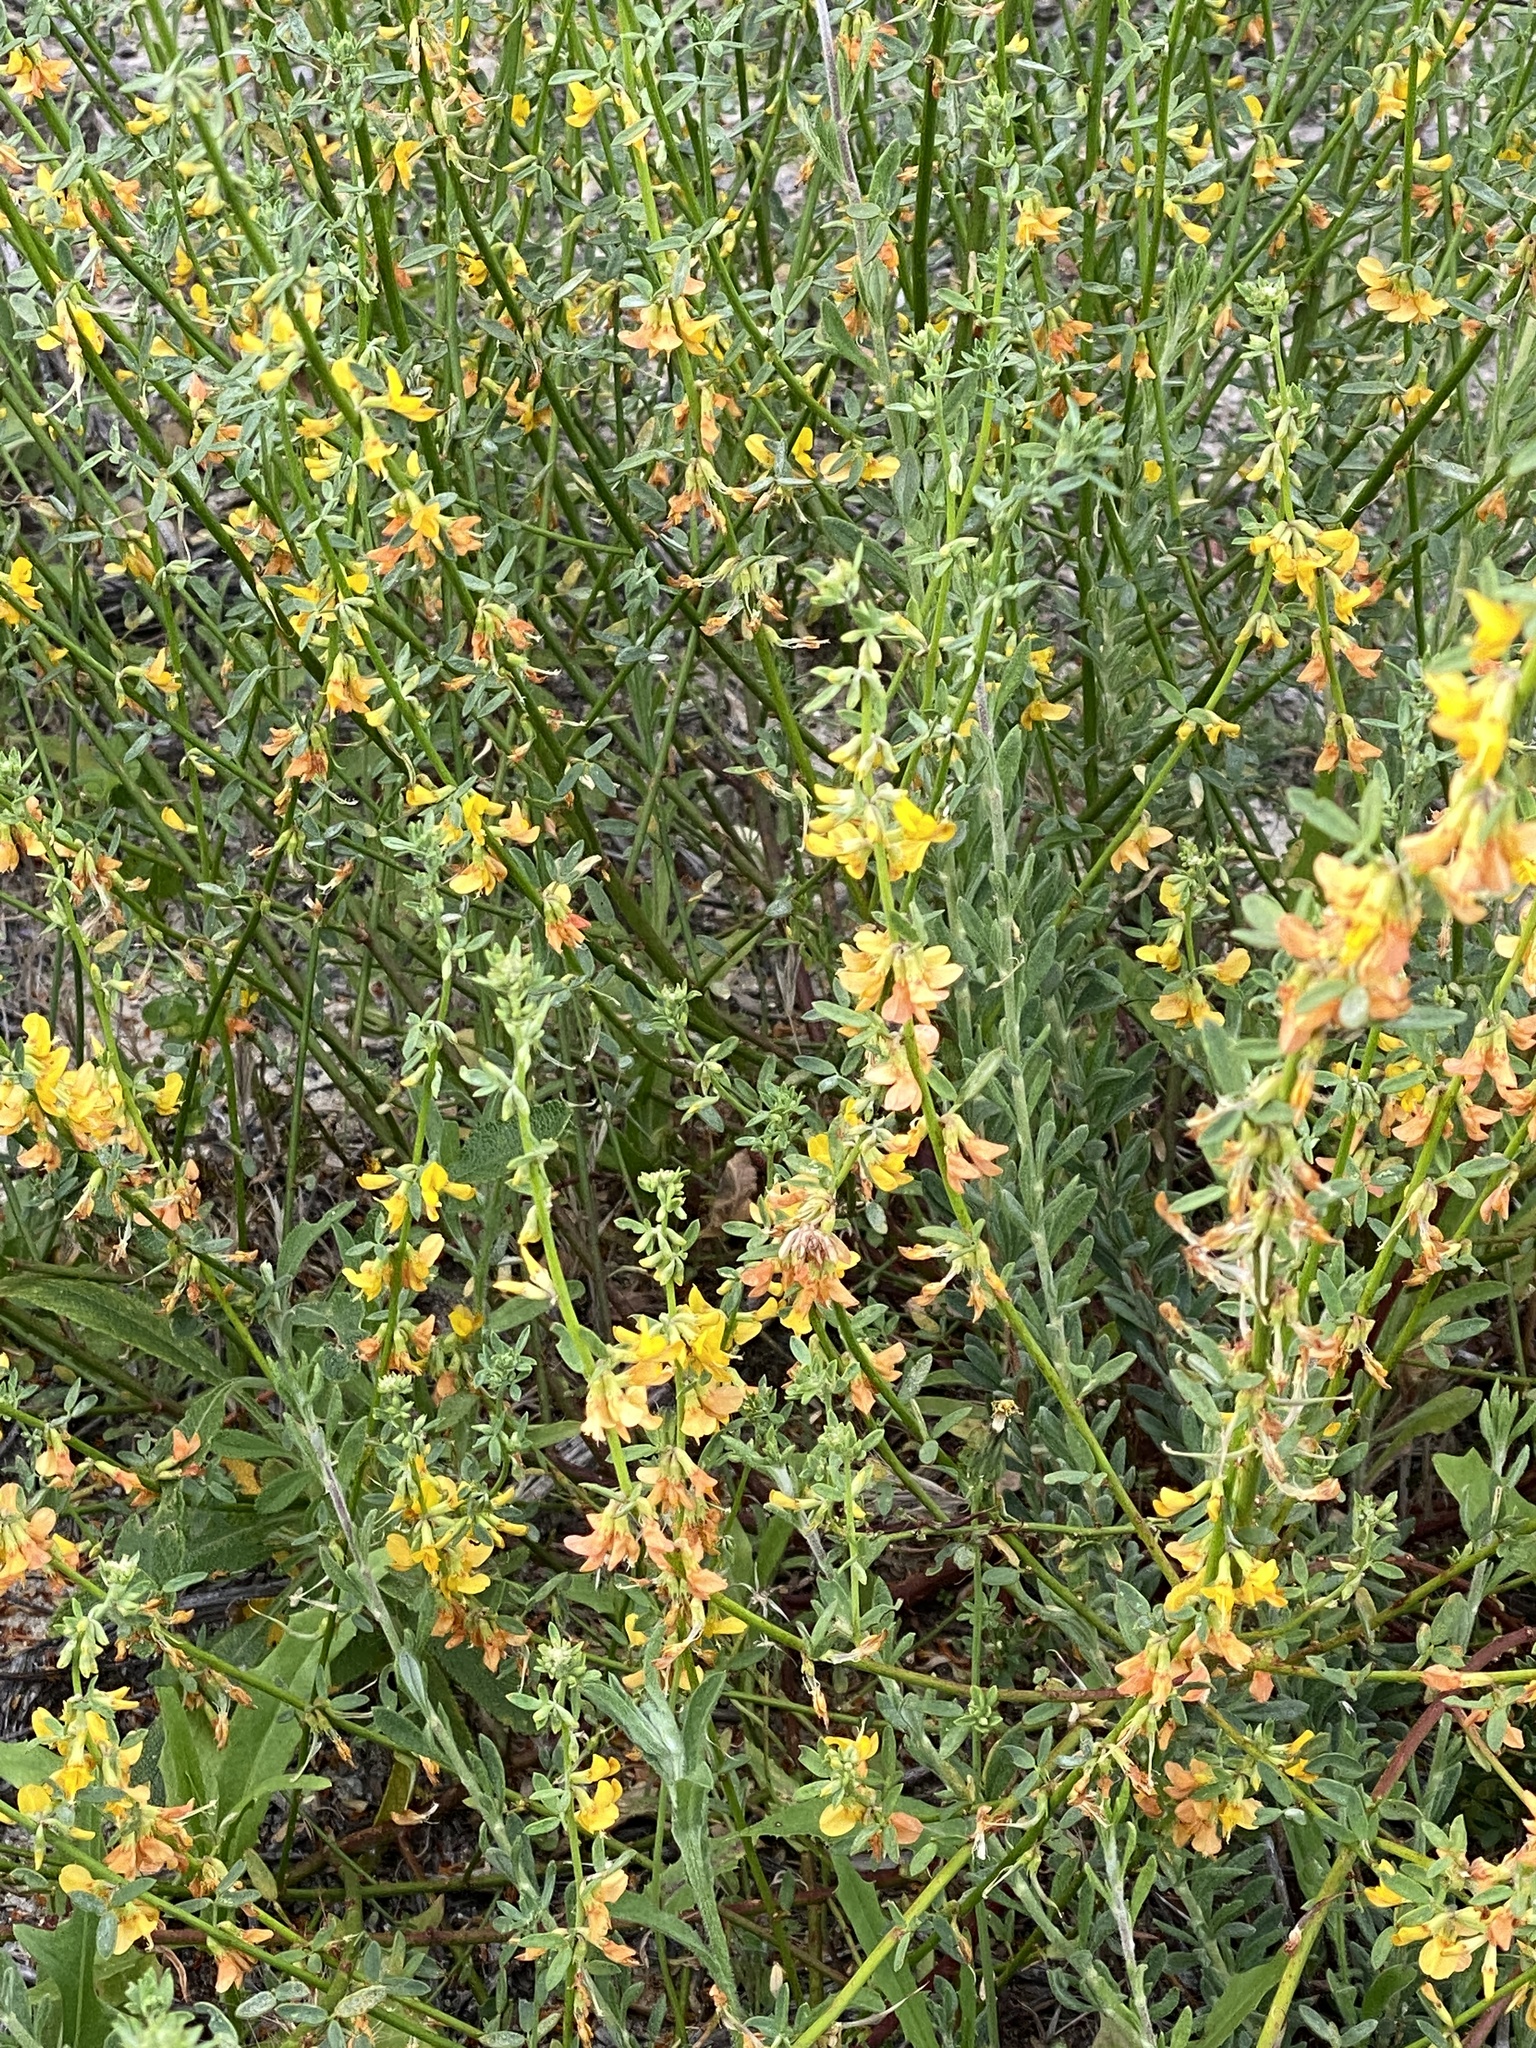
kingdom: Plantae
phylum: Tracheophyta
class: Magnoliopsida
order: Fabales
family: Fabaceae
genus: Acmispon
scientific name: Acmispon glaber
